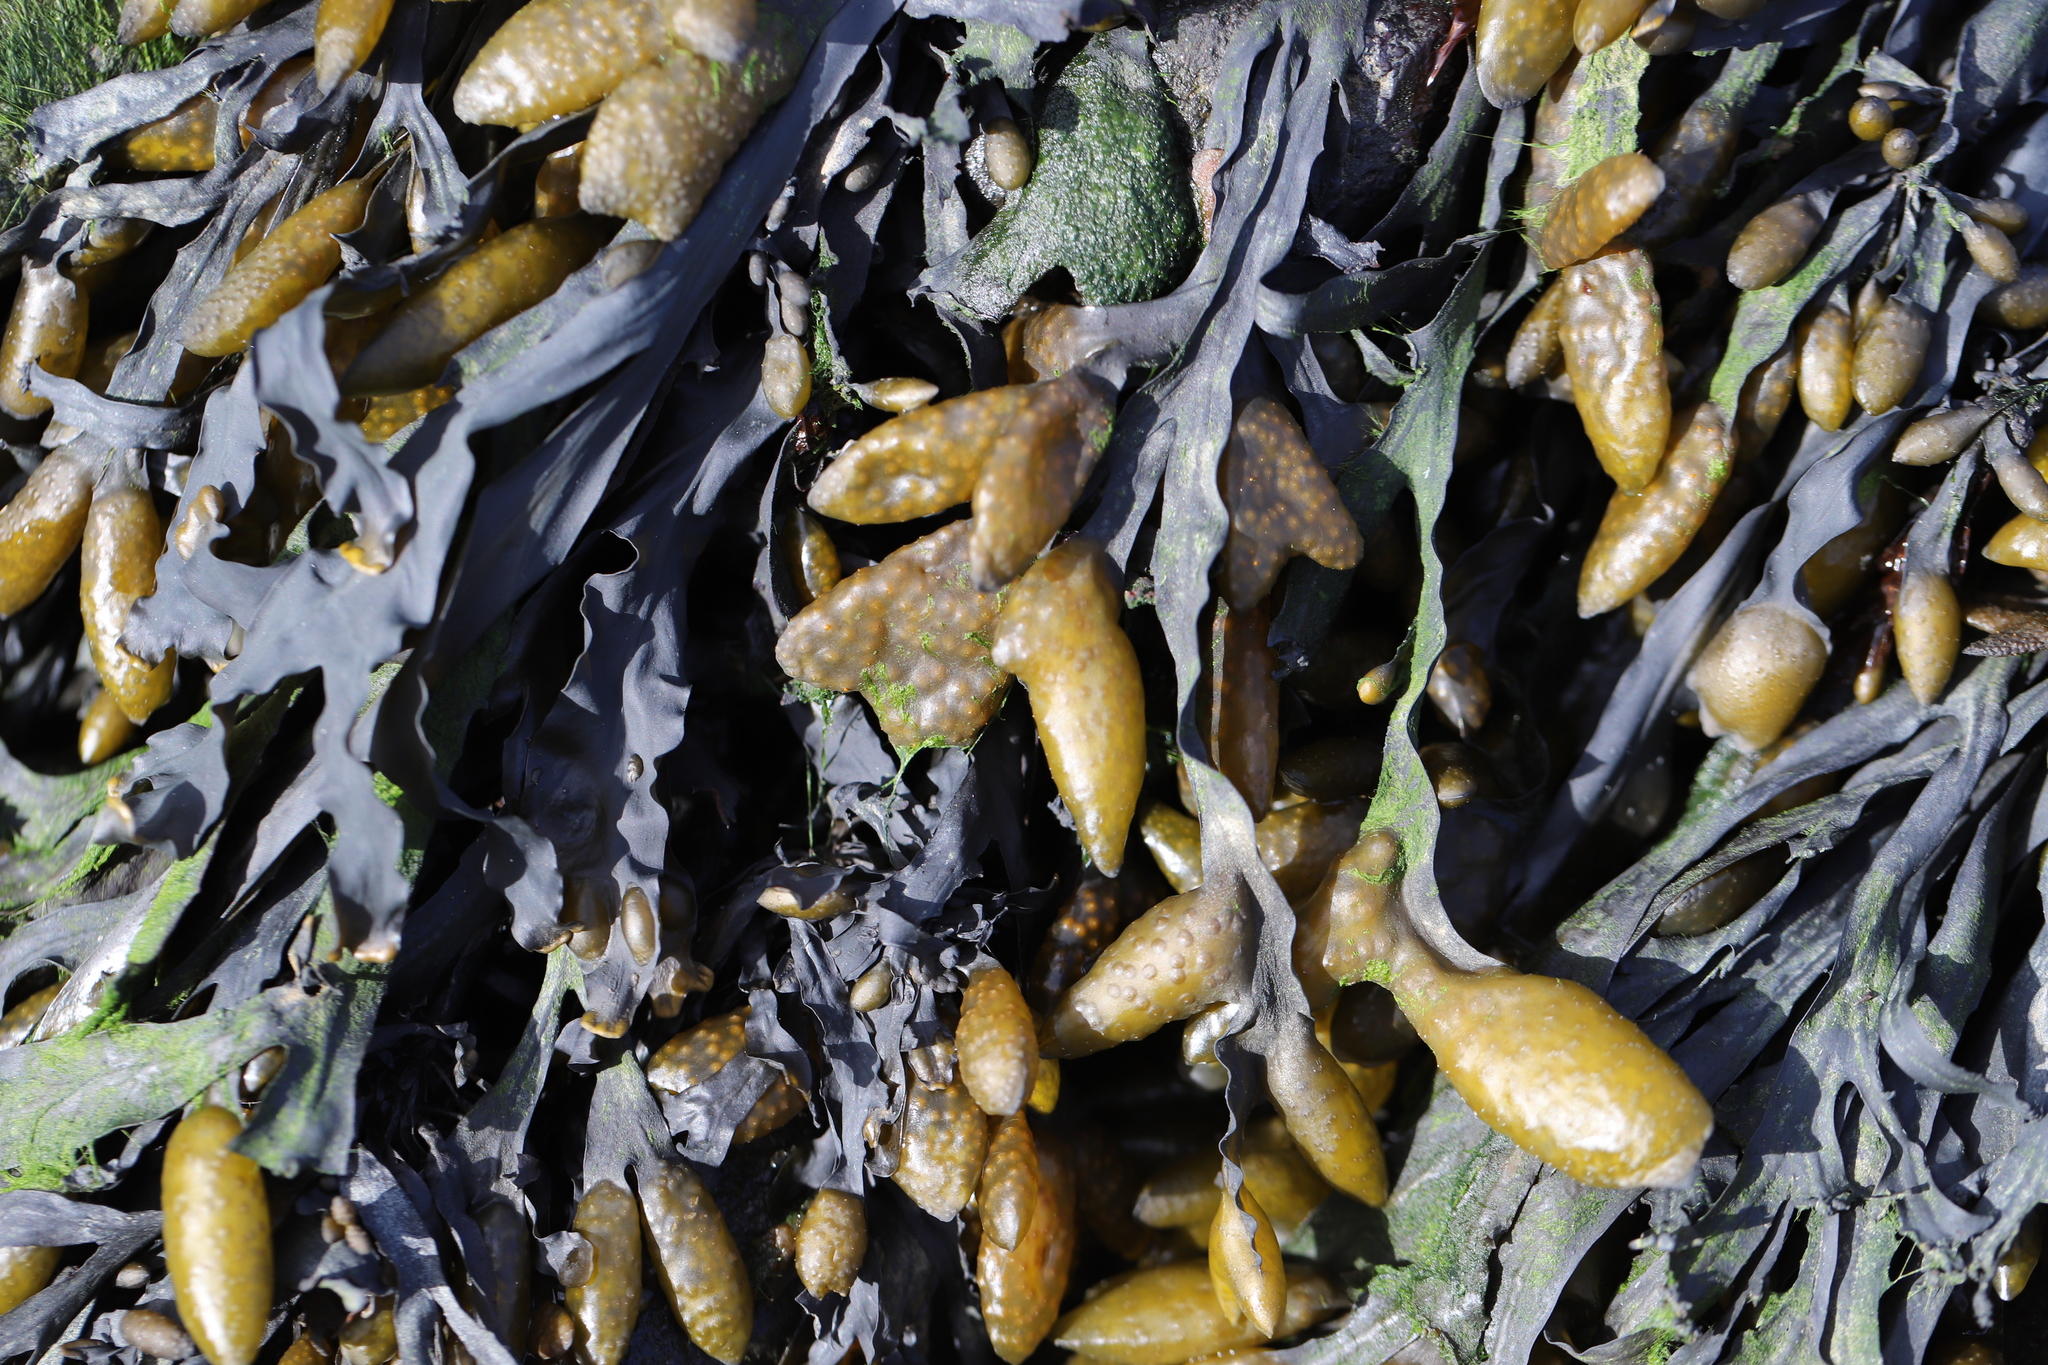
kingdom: Chromista
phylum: Ochrophyta
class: Phaeophyceae
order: Fucales
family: Fucaceae
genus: Fucus
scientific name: Fucus distichus
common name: Rockweed
